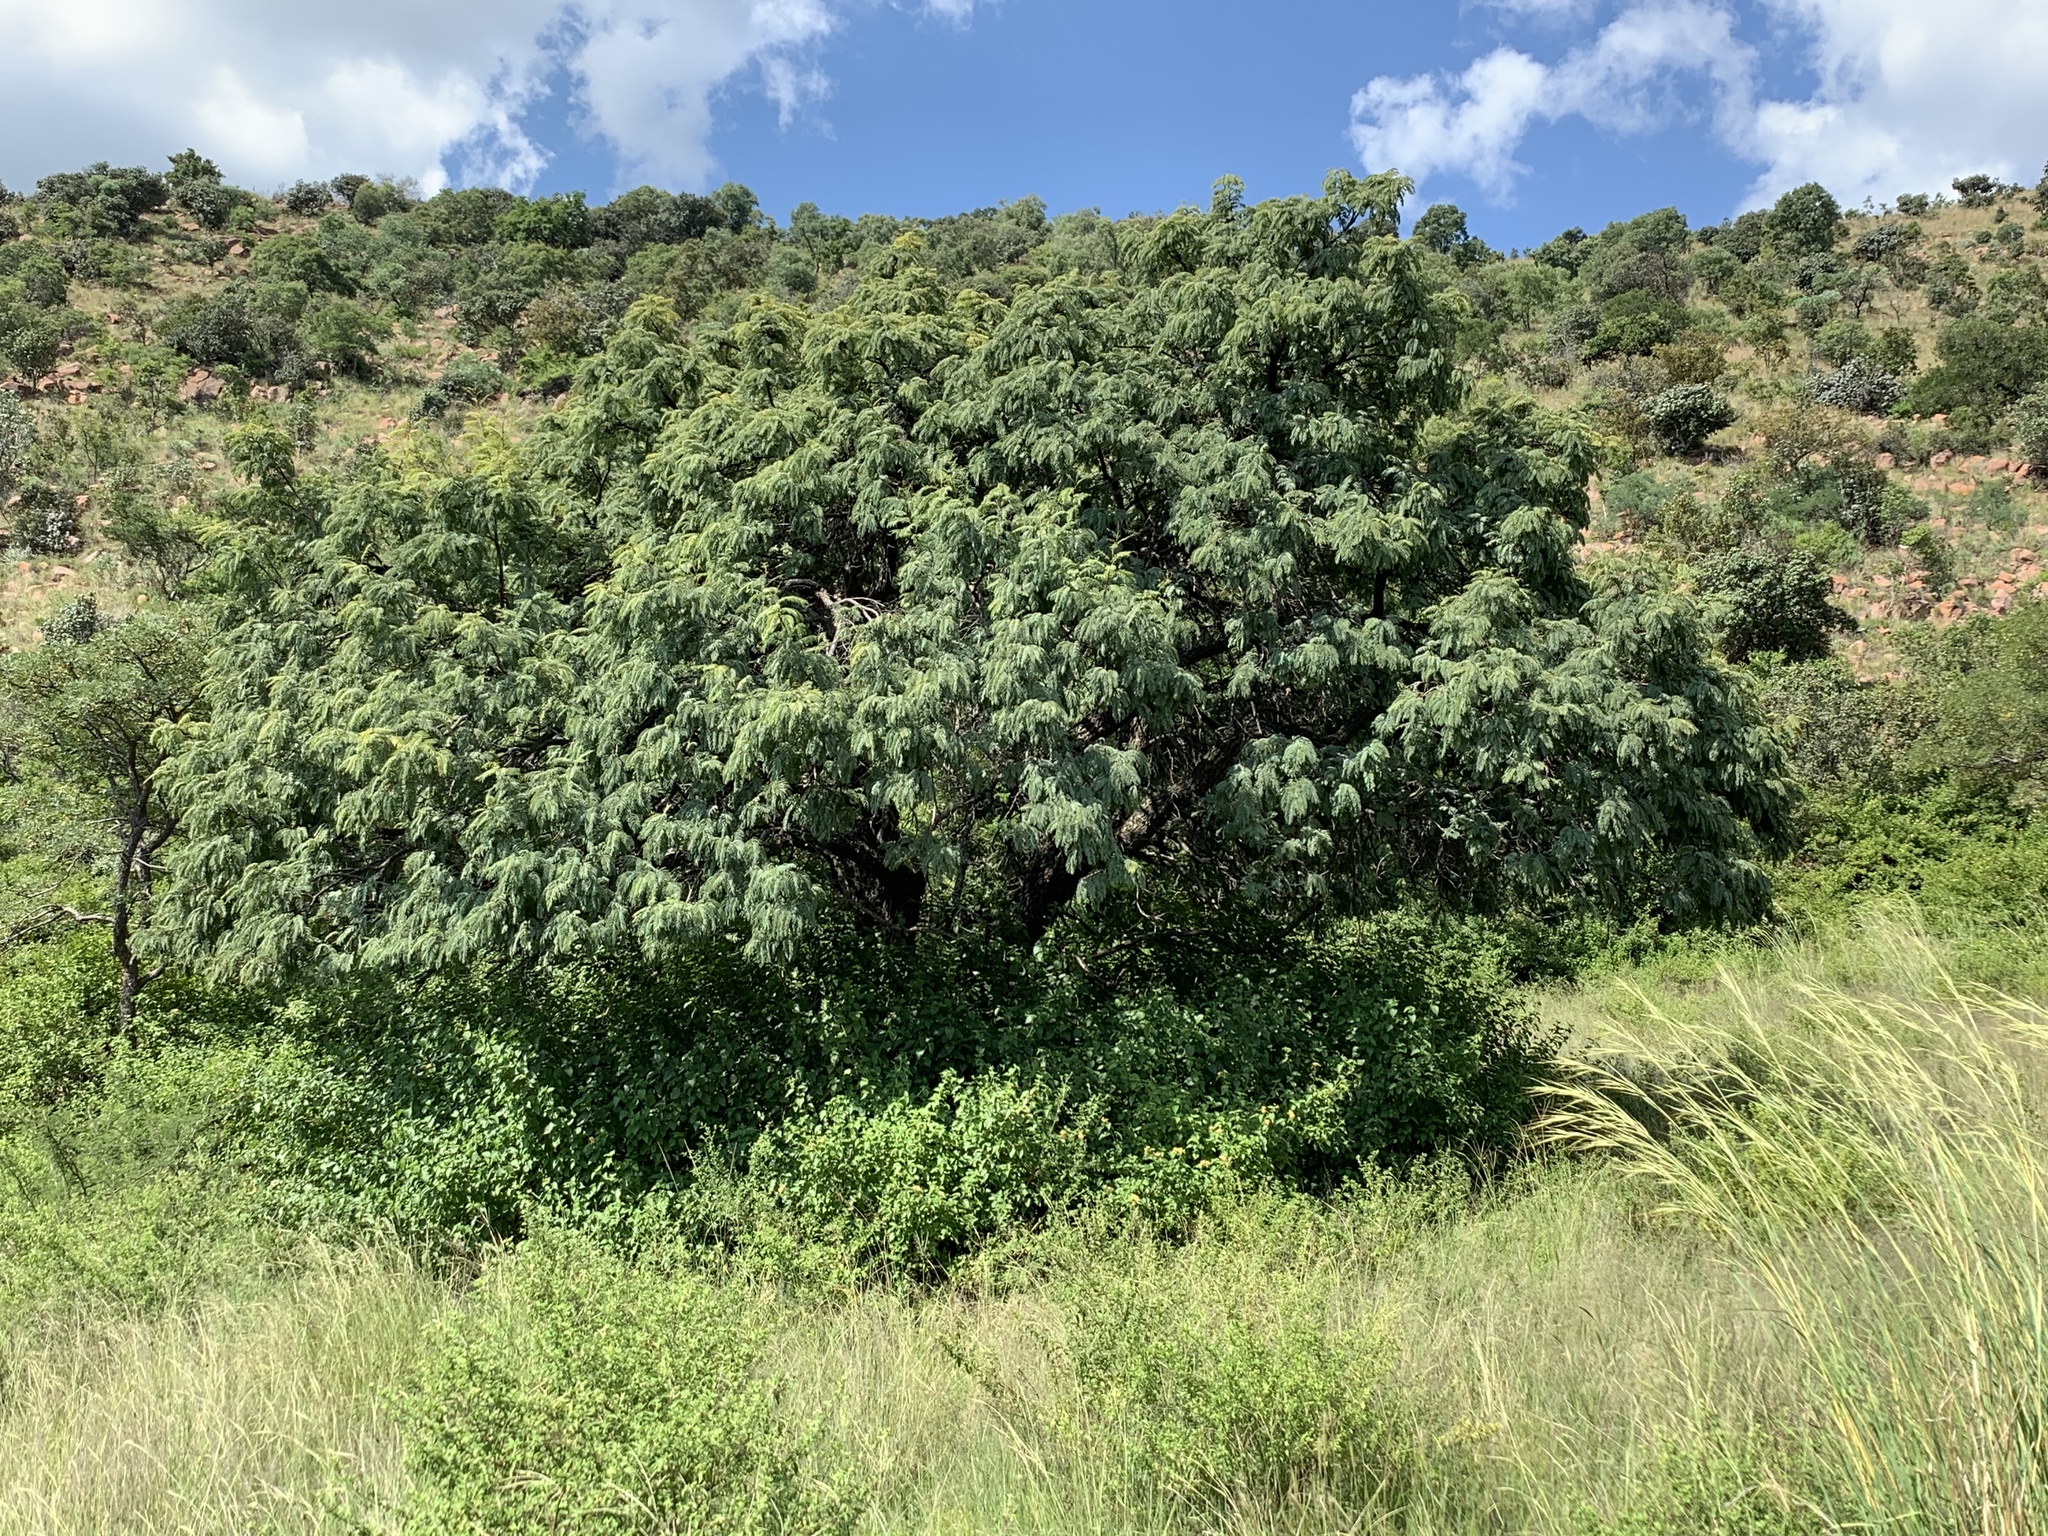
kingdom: Plantae
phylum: Tracheophyta
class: Magnoliopsida
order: Fabales
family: Fabaceae
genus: Senegalia
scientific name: Senegalia caffra
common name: Cat thorn
